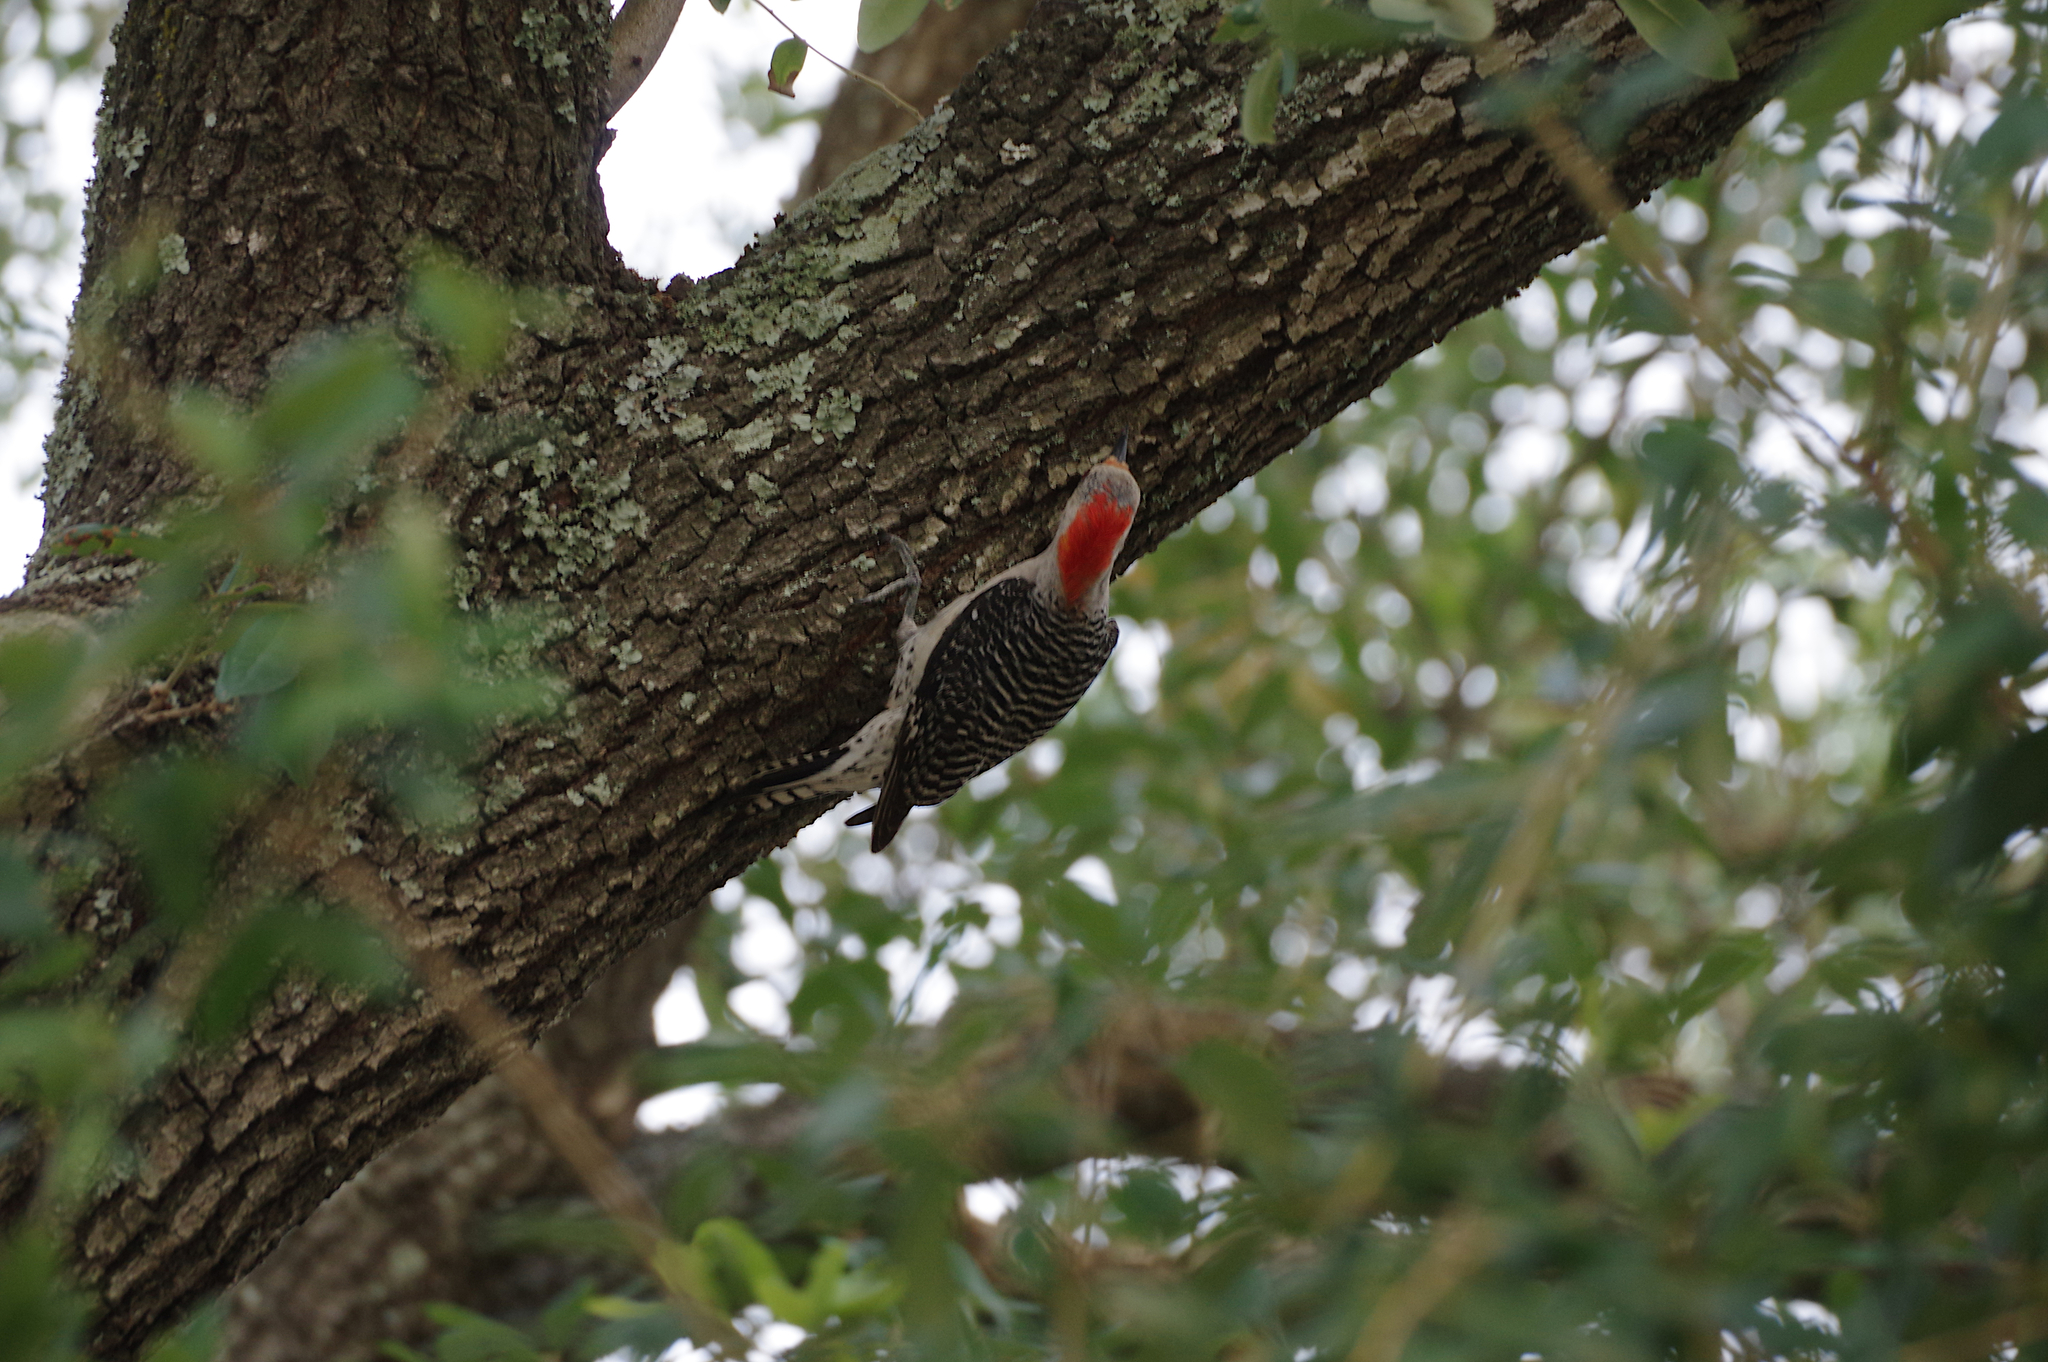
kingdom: Animalia
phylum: Chordata
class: Aves
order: Piciformes
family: Picidae
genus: Melanerpes
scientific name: Melanerpes carolinus
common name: Red-bellied woodpecker
